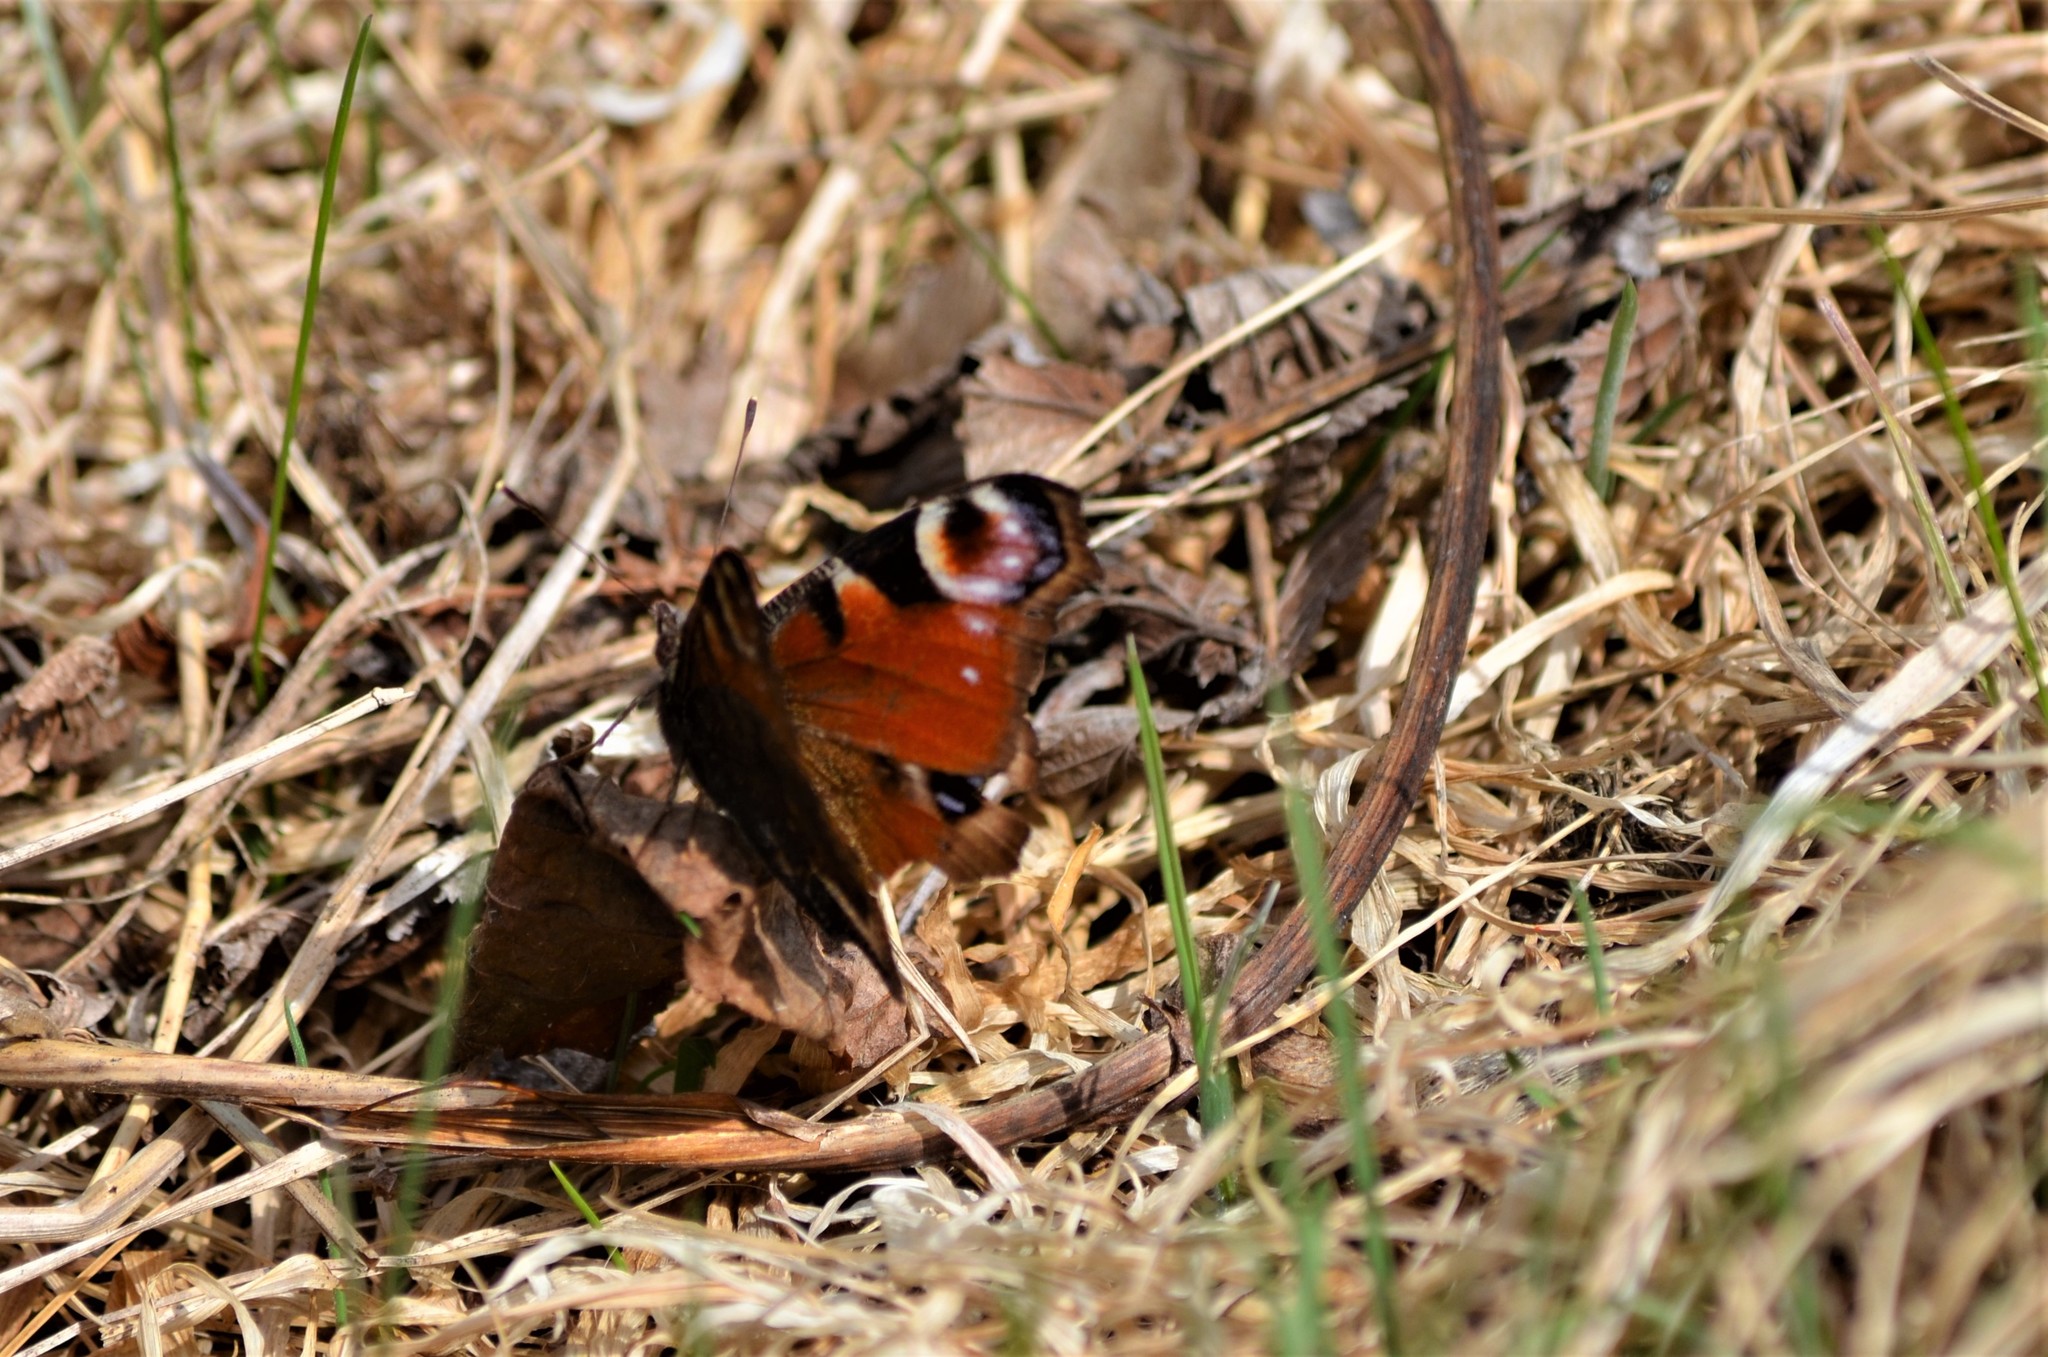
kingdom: Animalia
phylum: Arthropoda
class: Insecta
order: Lepidoptera
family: Nymphalidae
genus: Aglais
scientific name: Aglais io
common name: Peacock
